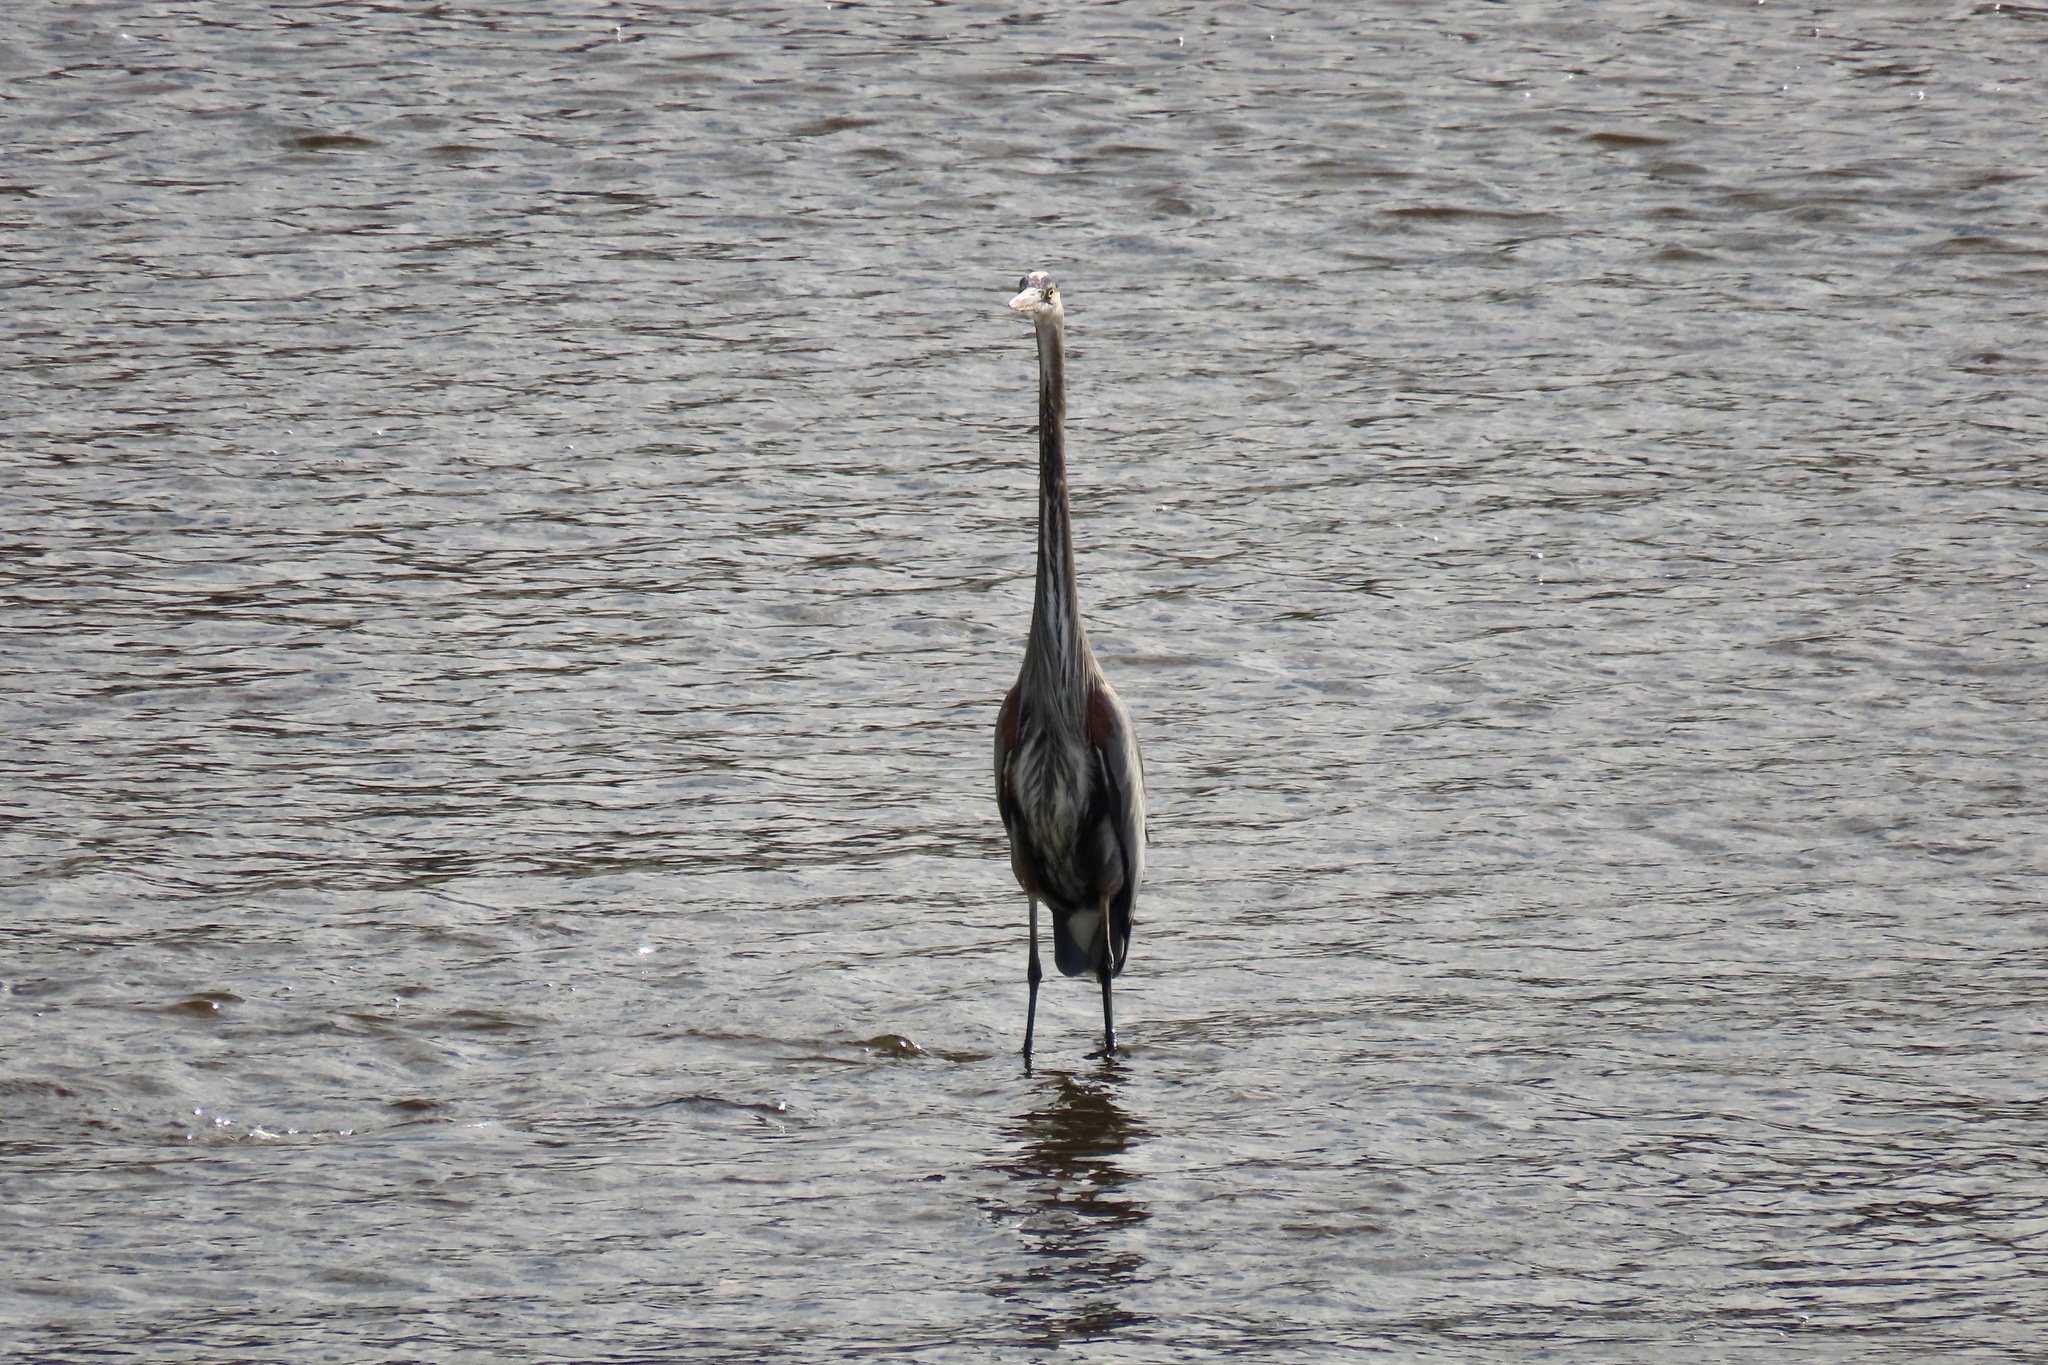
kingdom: Animalia
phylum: Chordata
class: Aves
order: Pelecaniformes
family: Ardeidae
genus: Ardea
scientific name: Ardea herodias
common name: Great blue heron
